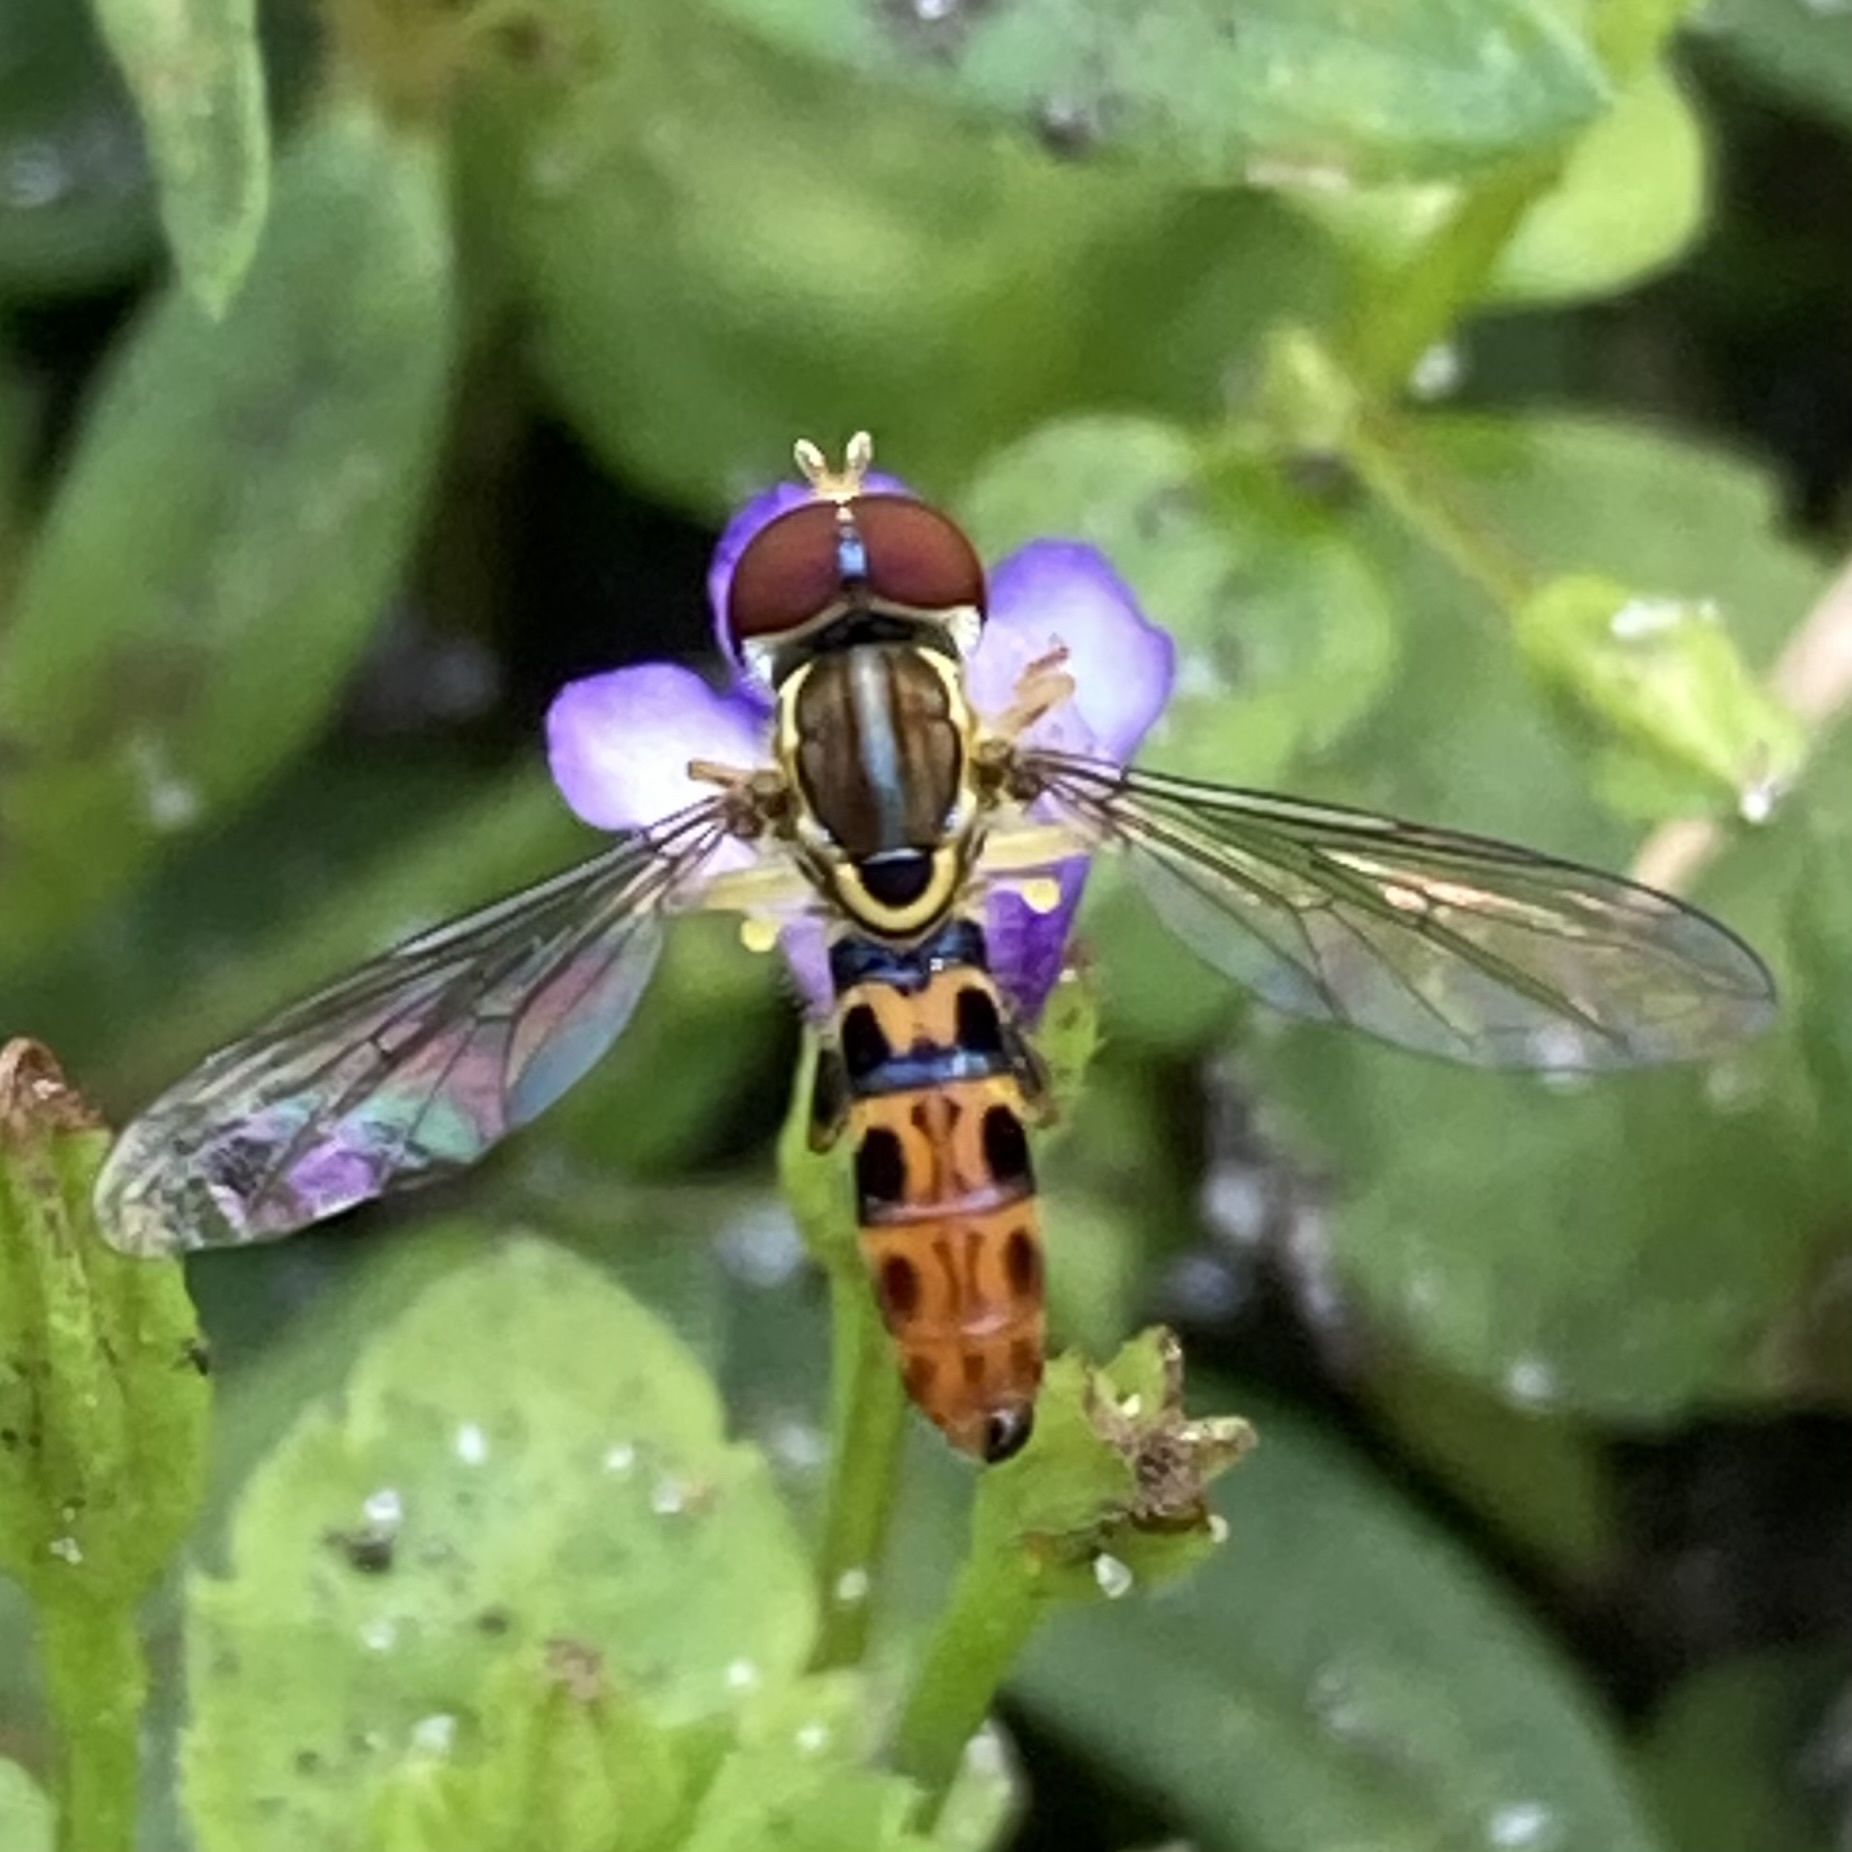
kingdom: Animalia
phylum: Arthropoda
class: Insecta
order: Diptera
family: Syrphidae
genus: Toxomerus
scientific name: Toxomerus arcifer
